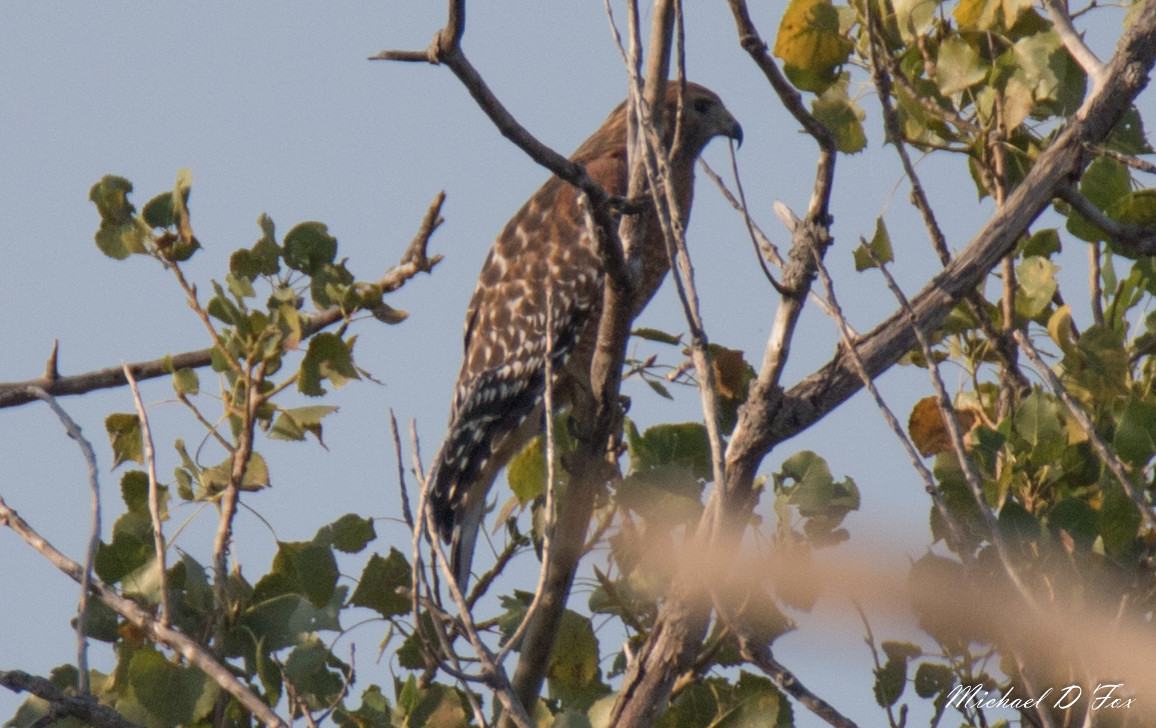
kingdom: Animalia
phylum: Chordata
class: Aves
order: Accipitriformes
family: Accipitridae
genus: Buteo
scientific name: Buteo lineatus
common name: Red-shouldered hawk
